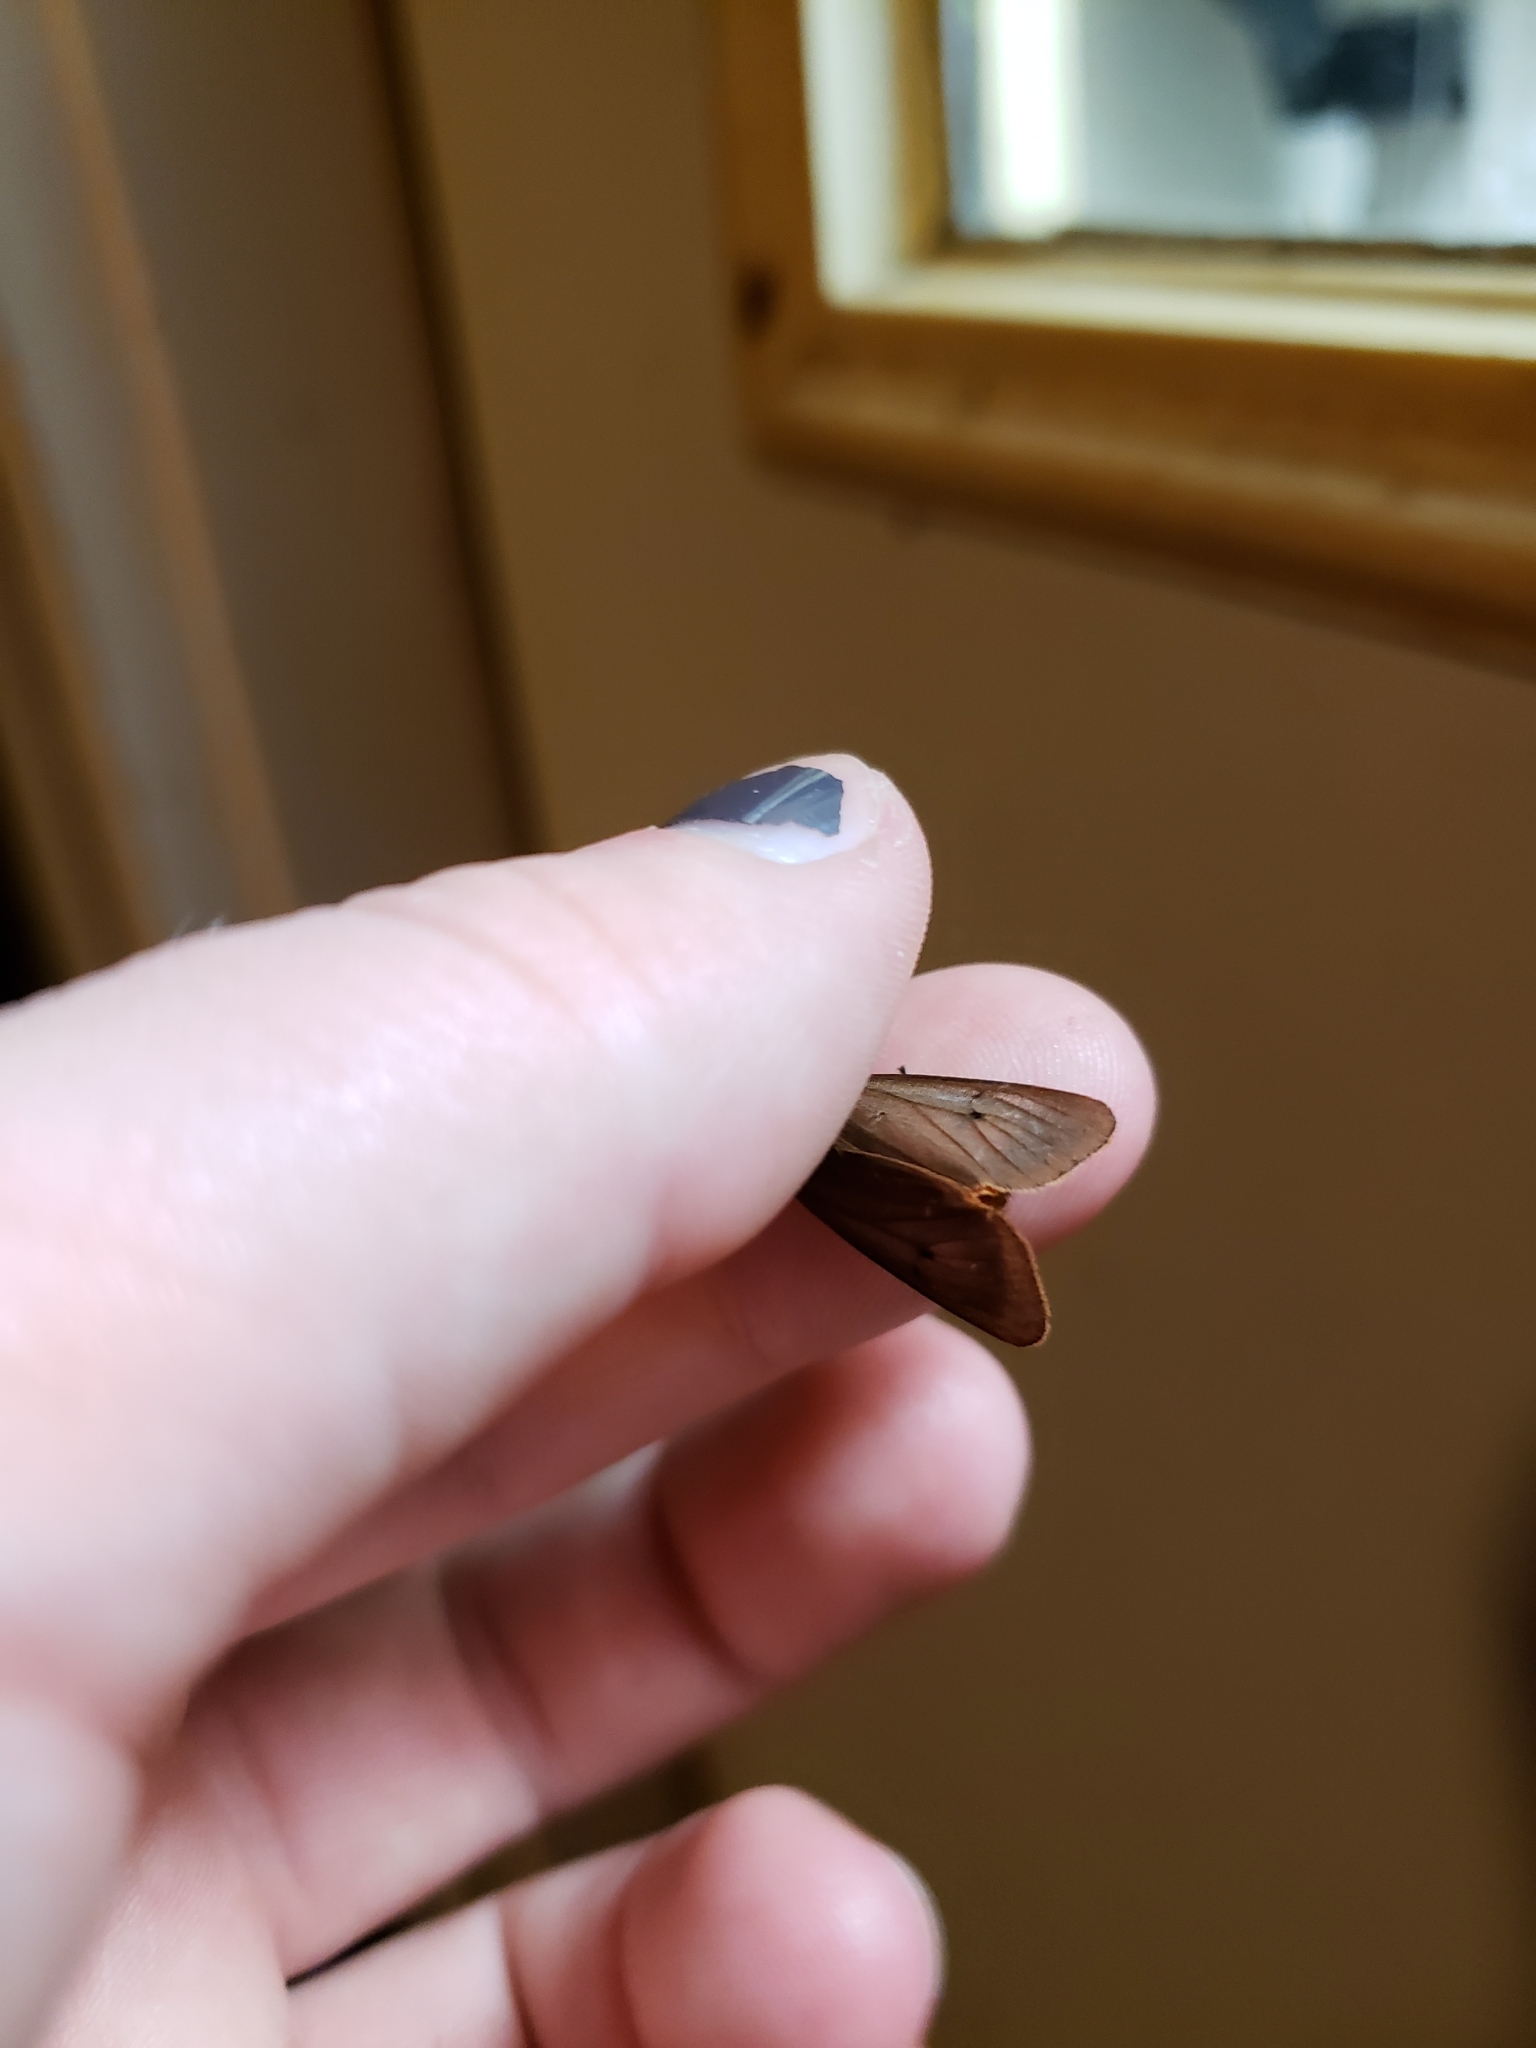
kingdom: Animalia
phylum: Arthropoda
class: Insecta
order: Lepidoptera
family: Erebidae
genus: Phragmatobia
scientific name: Phragmatobia fuliginosa
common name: Ruby tiger
